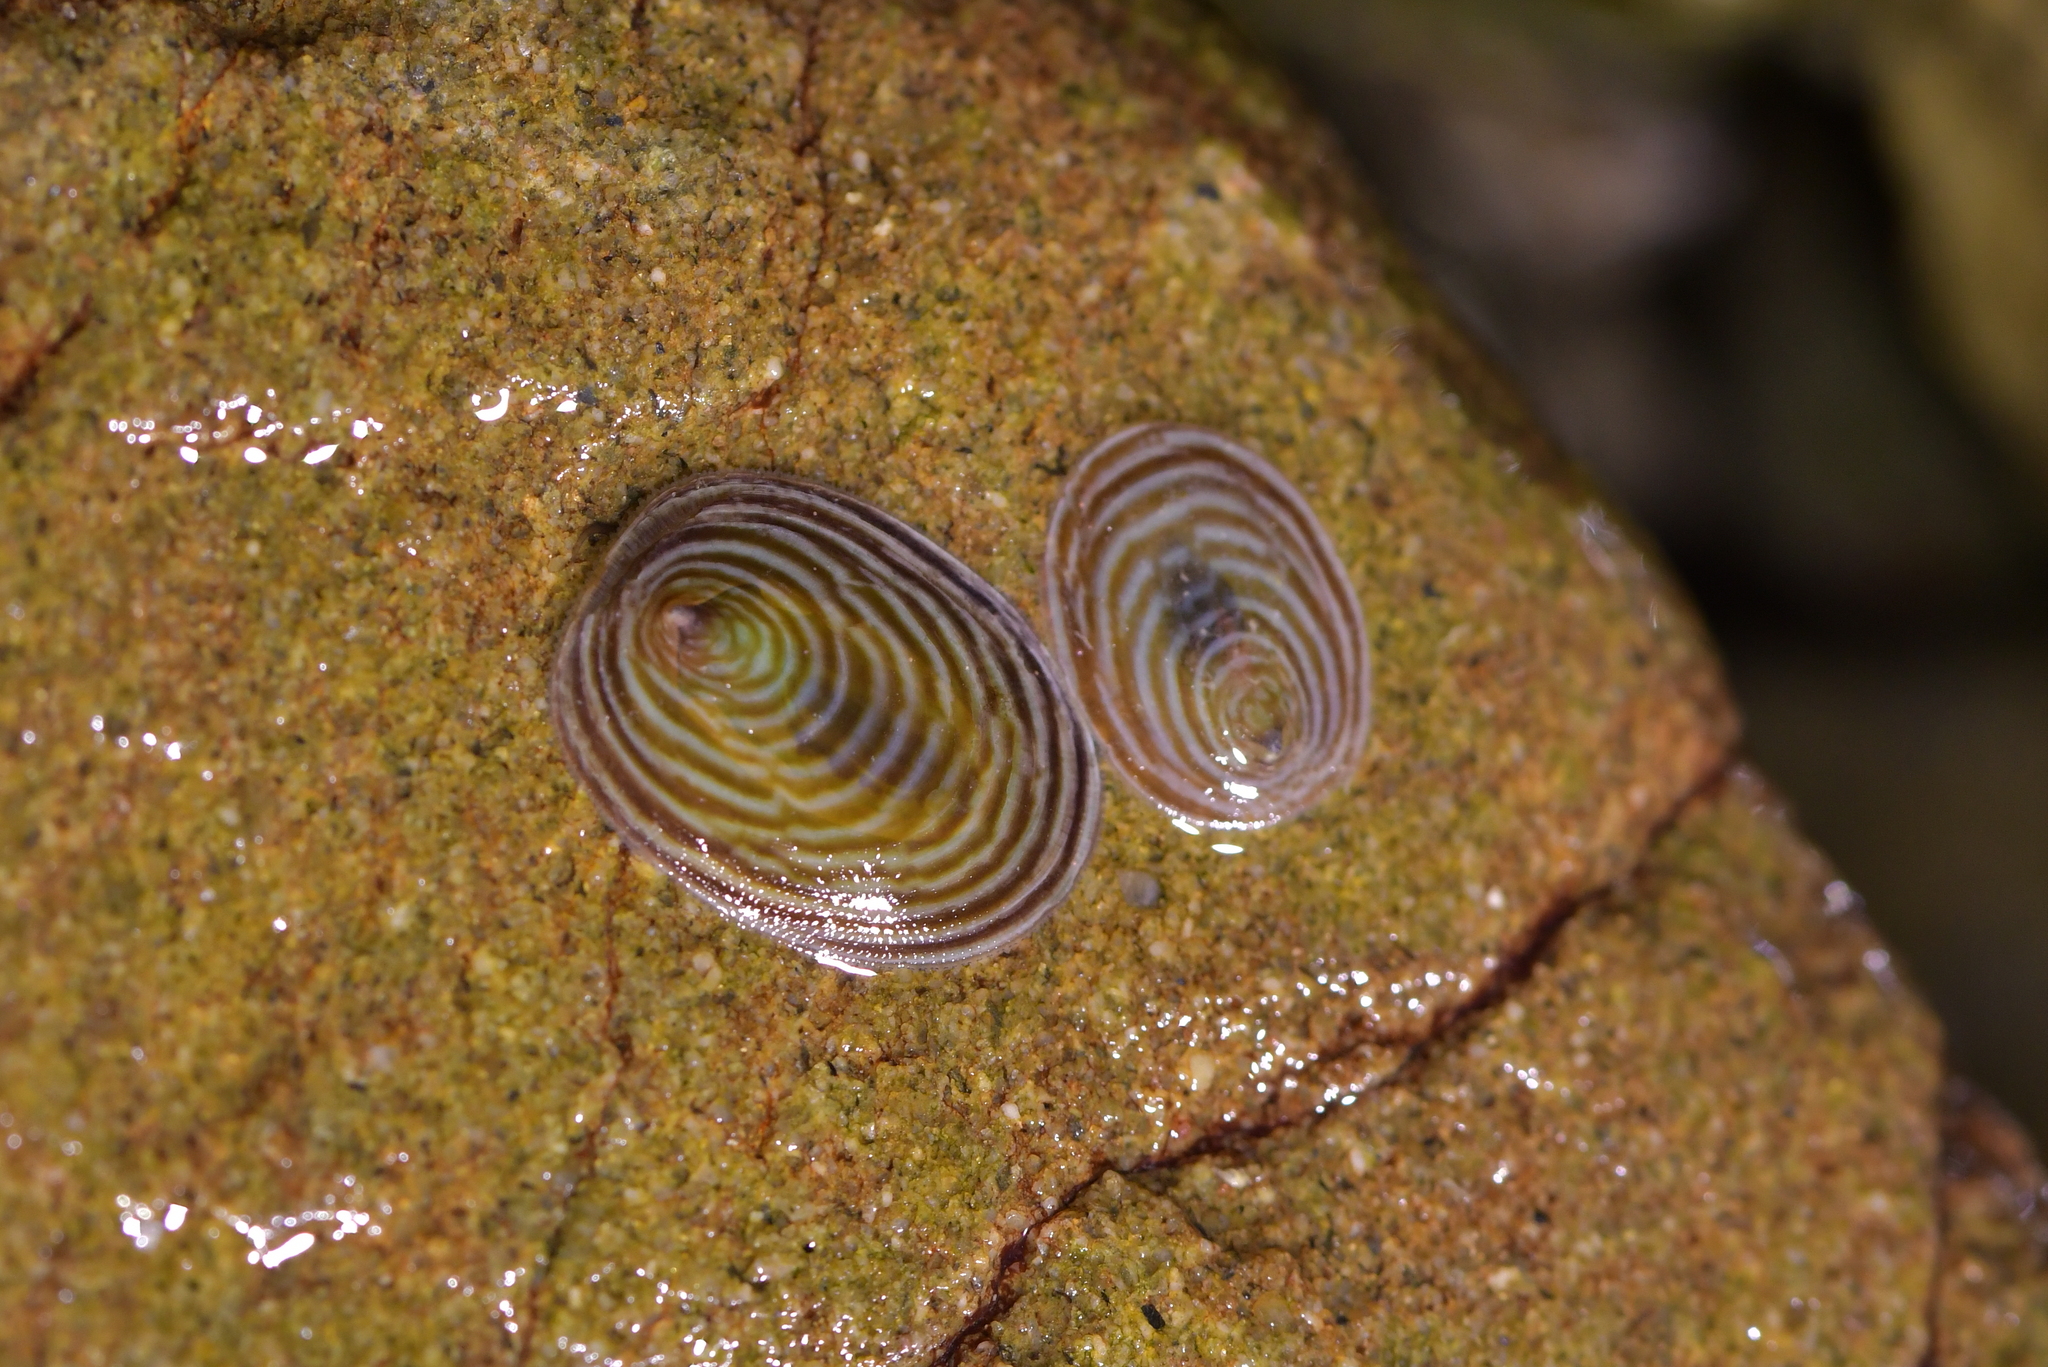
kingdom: Animalia
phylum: Mollusca
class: Gastropoda
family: Lottiidae
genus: Atalacmea
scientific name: Atalacmea fragilis
